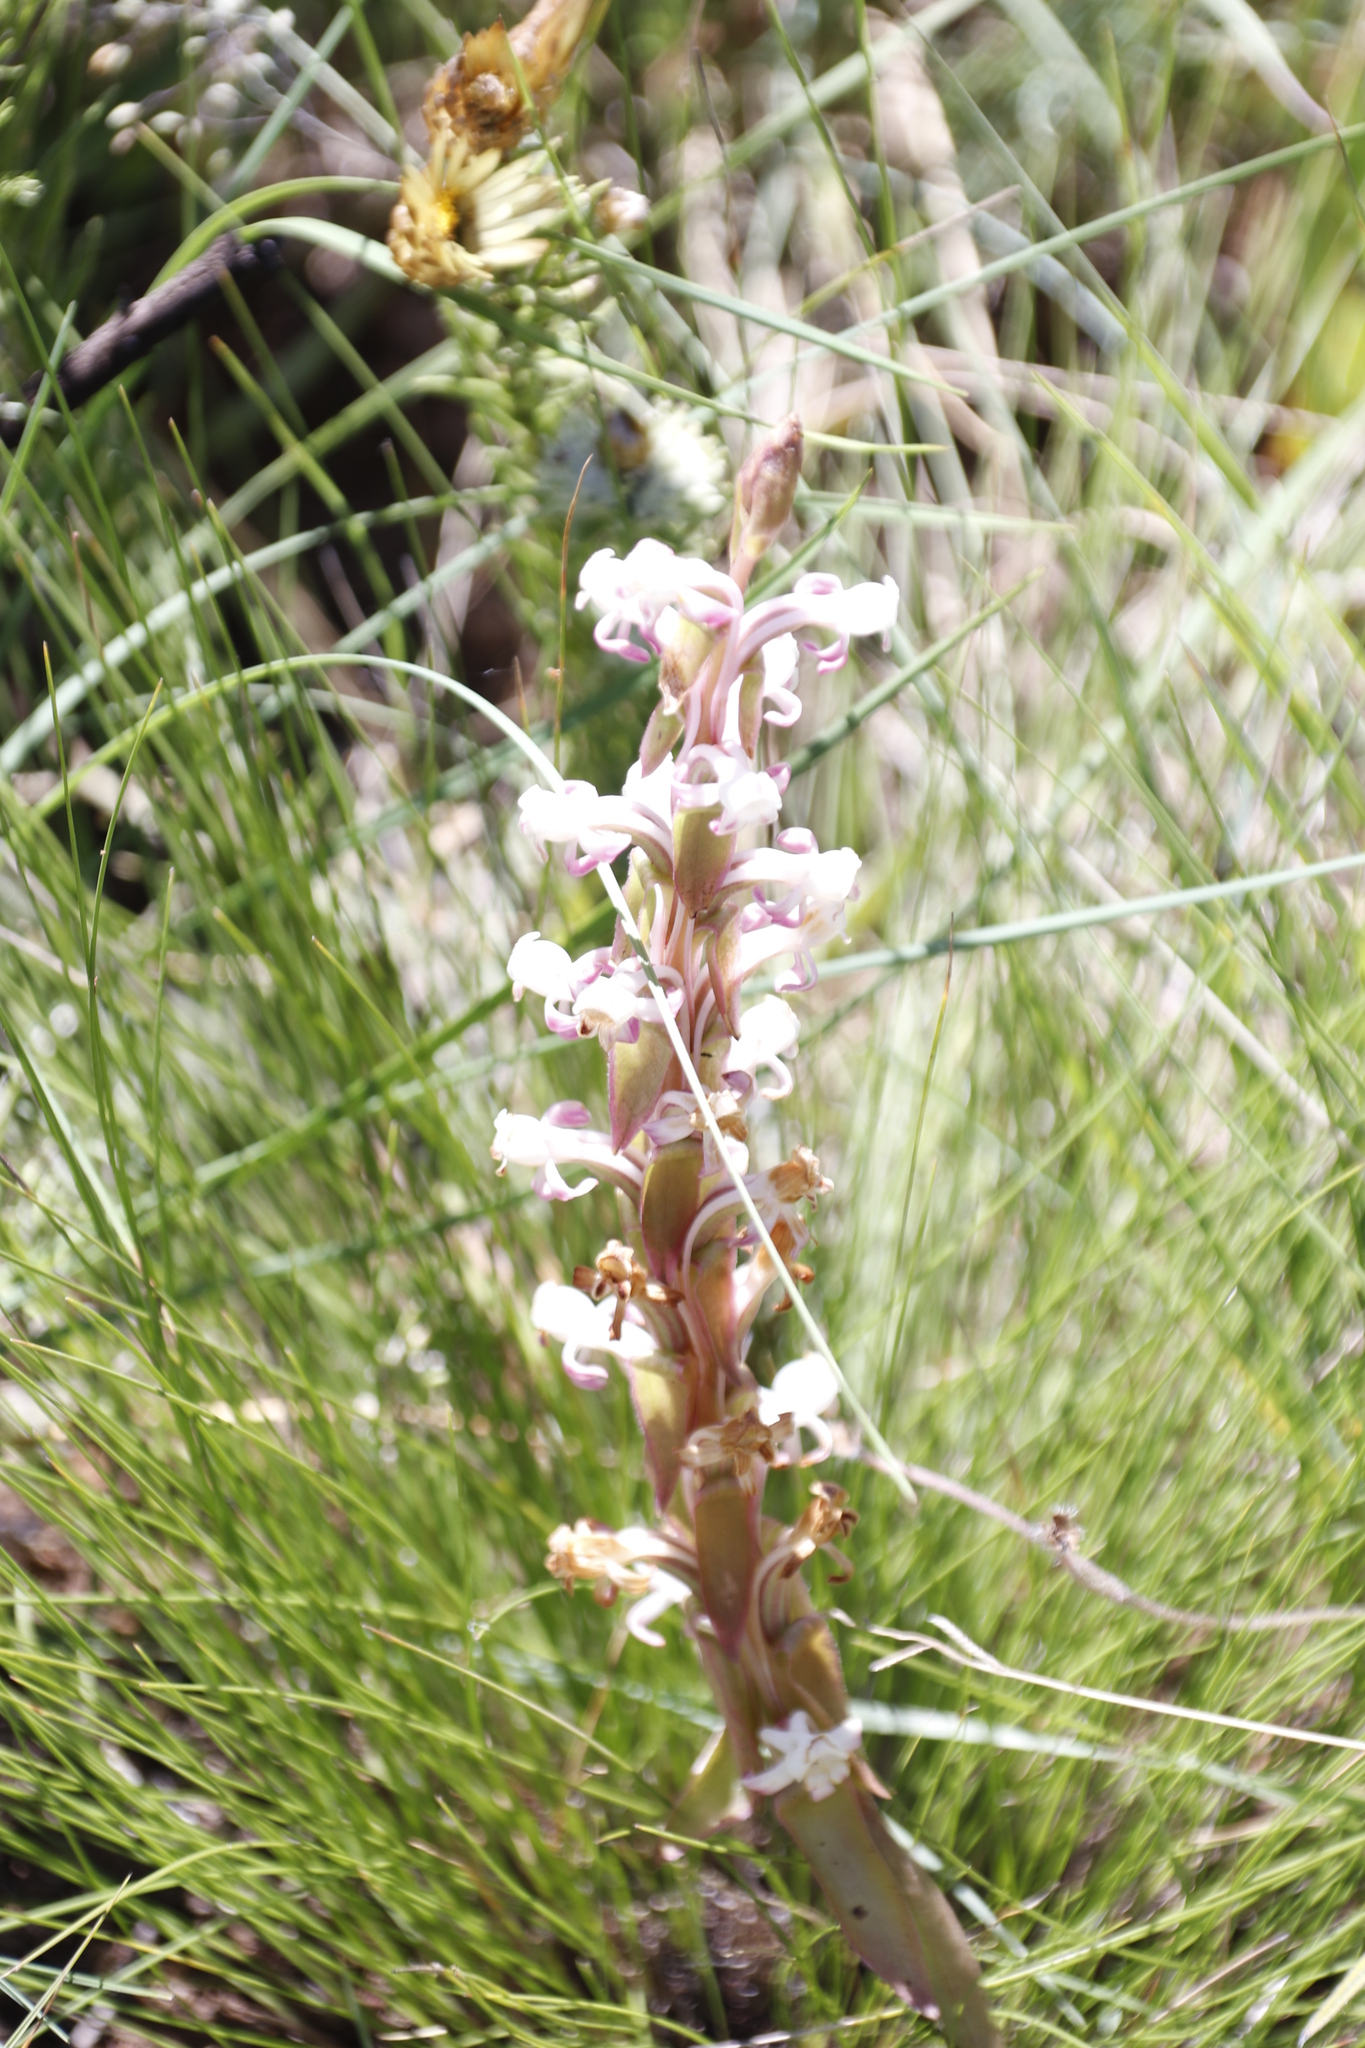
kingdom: Plantae
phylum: Tracheophyta
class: Liliopsida
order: Asparagales
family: Orchidaceae
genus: Satyrium
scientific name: Satyrium longicauda
